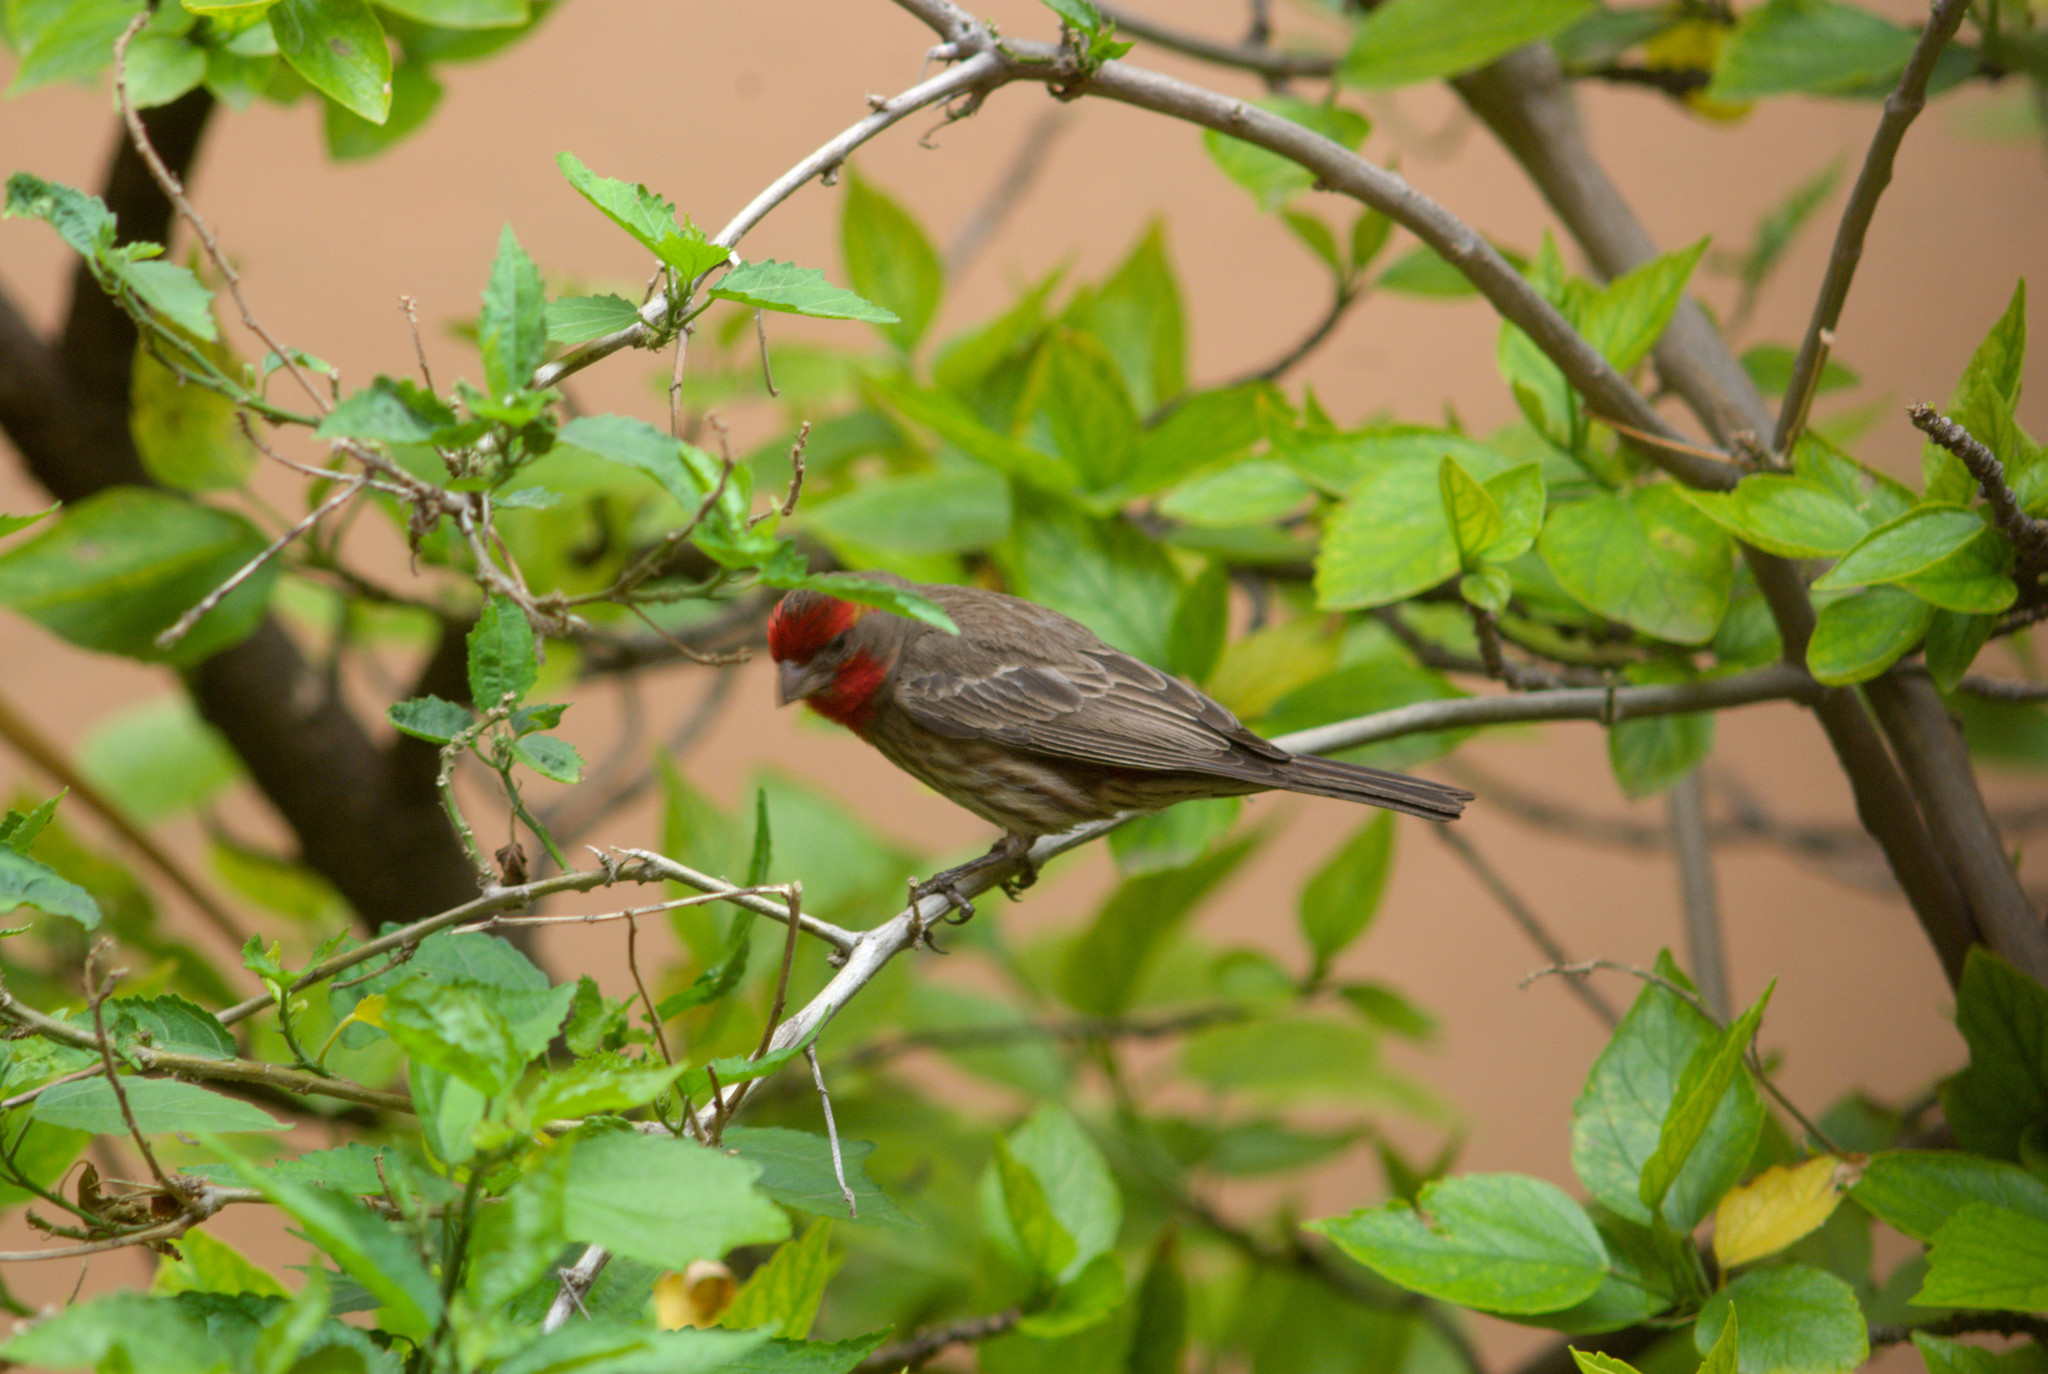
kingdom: Animalia
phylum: Chordata
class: Aves
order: Passeriformes
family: Fringillidae
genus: Haemorhous
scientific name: Haemorhous mexicanus
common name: House finch
